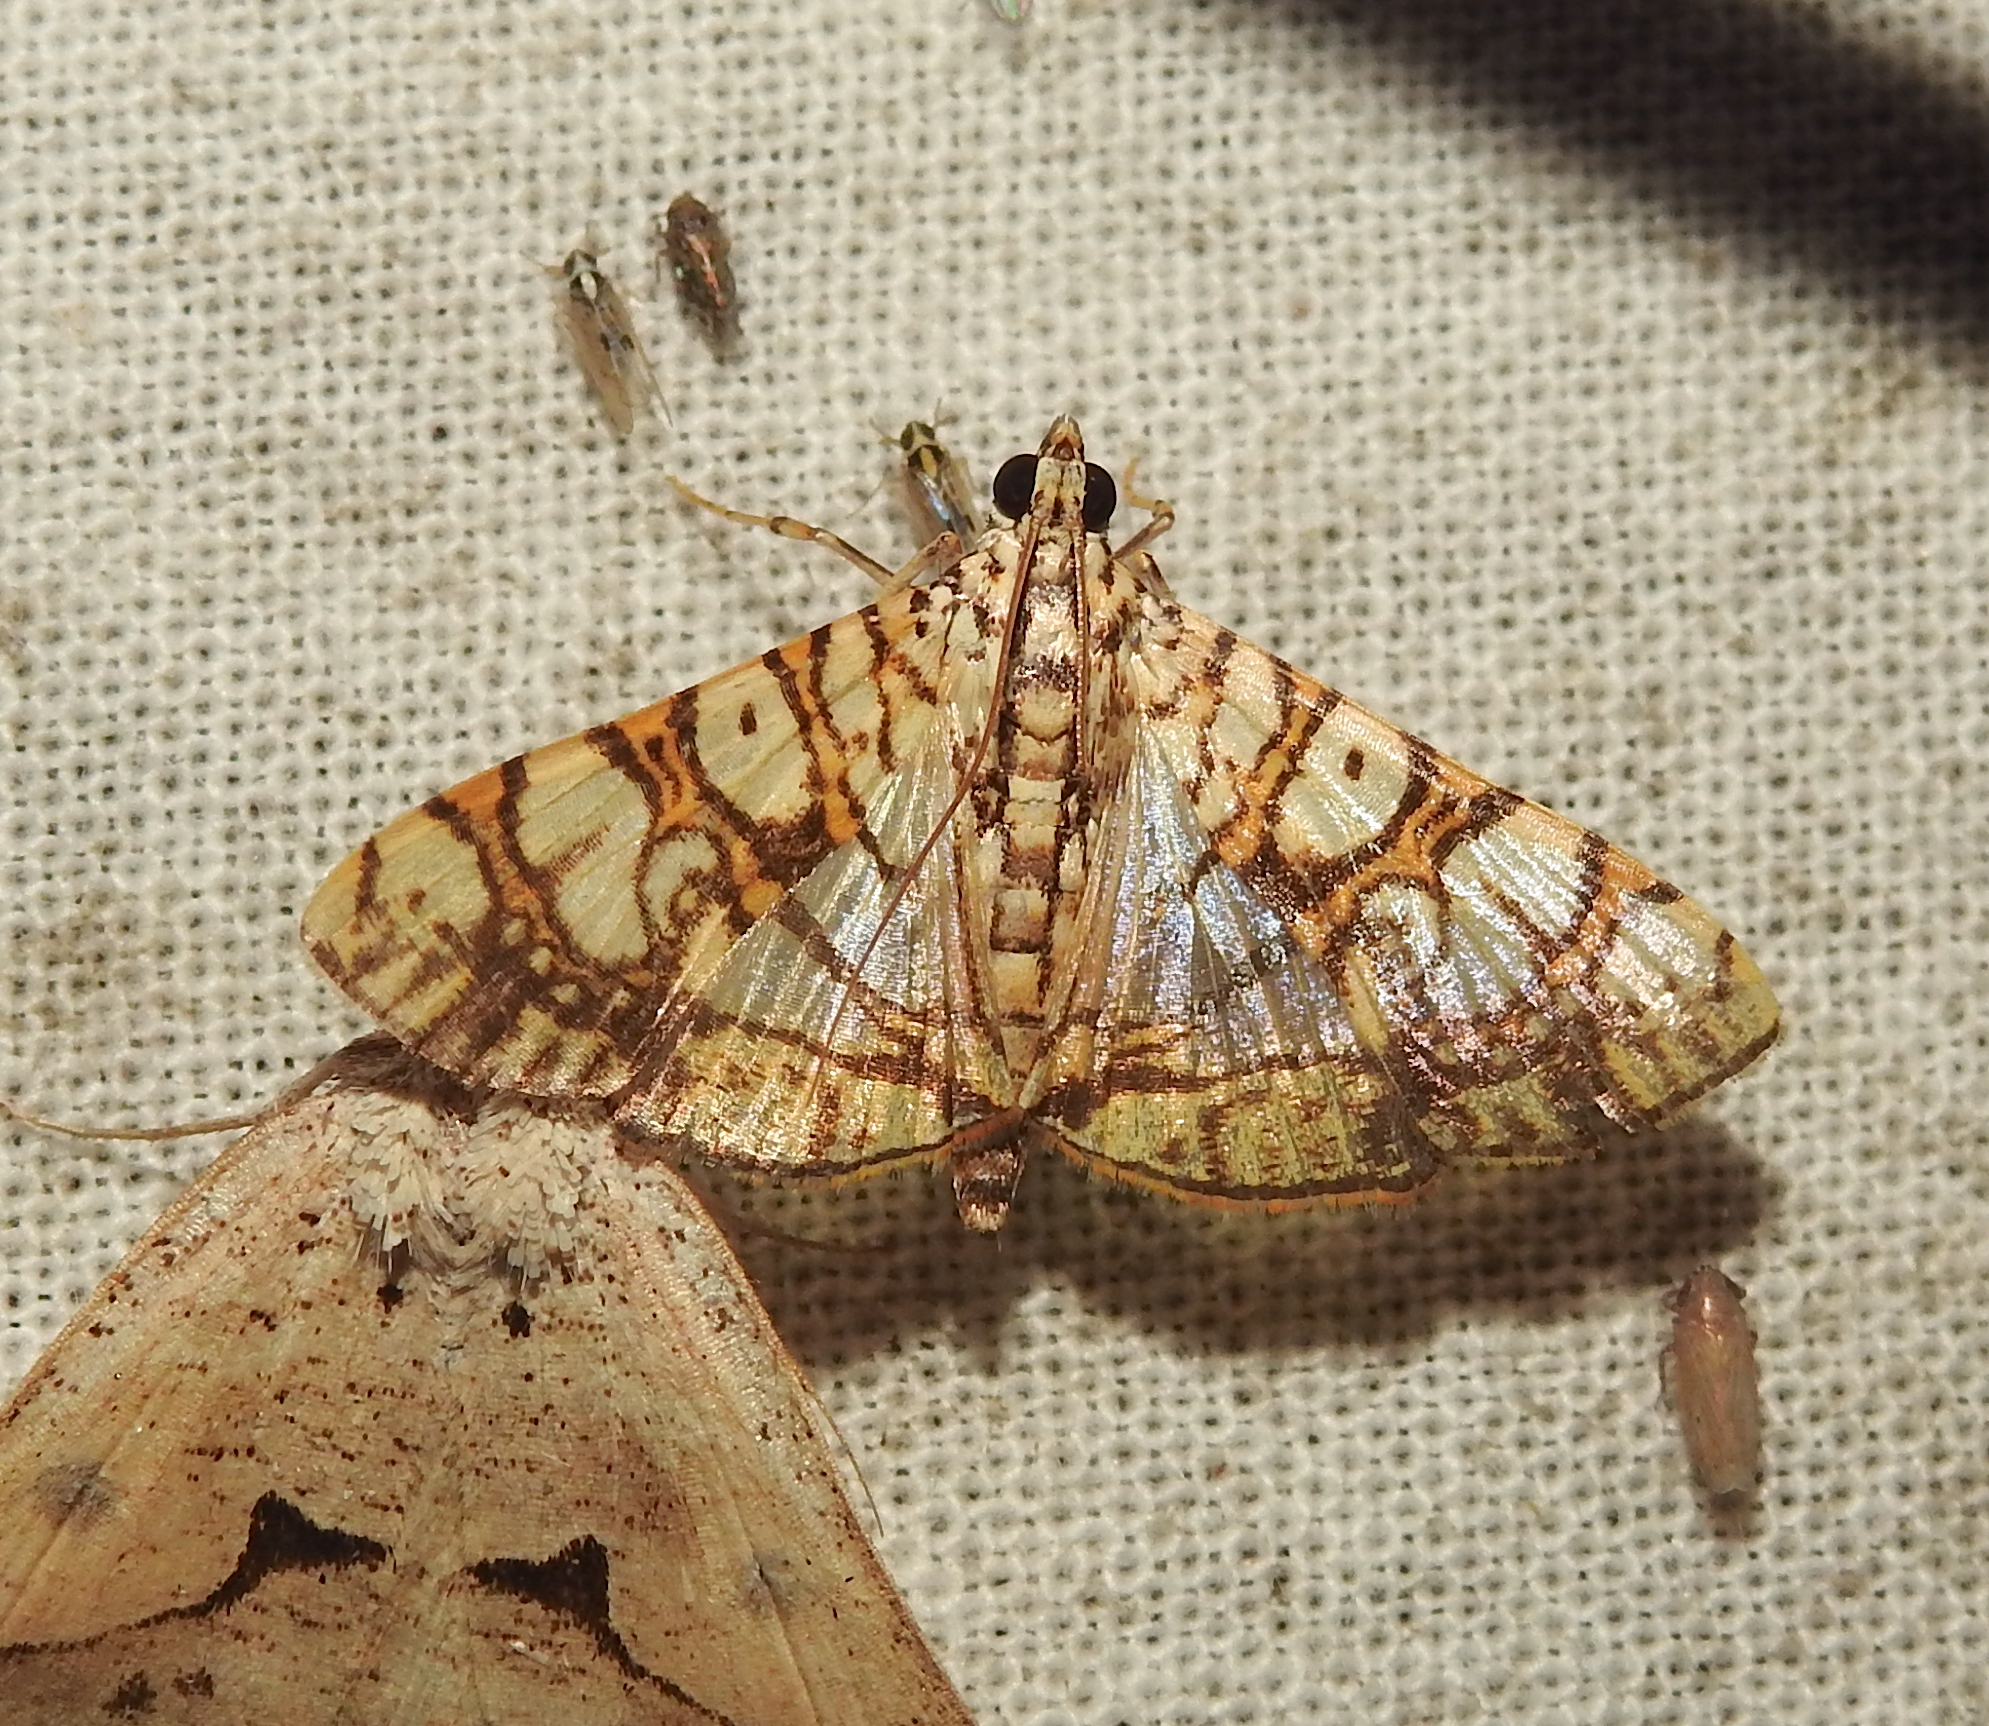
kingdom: Animalia
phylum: Arthropoda
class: Insecta
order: Lepidoptera
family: Crambidae
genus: Glyphodes
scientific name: Glyphodes caesalis
